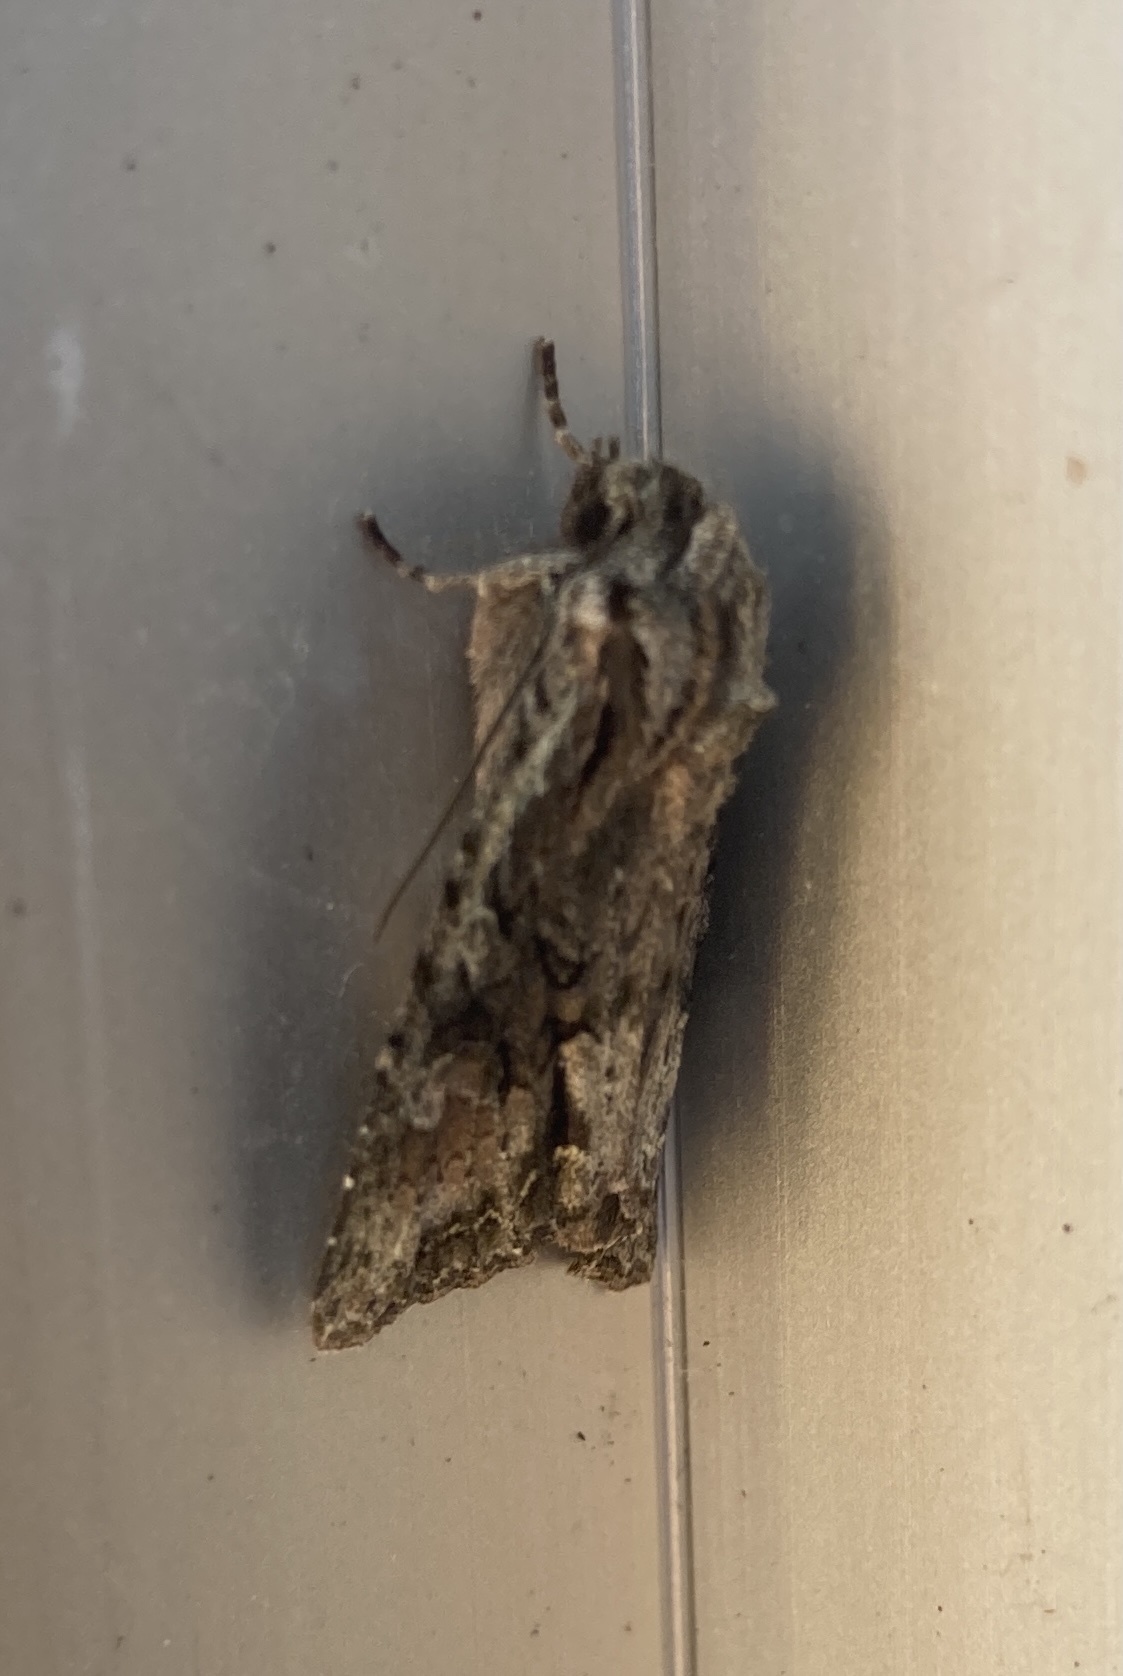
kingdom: Animalia
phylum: Arthropoda
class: Insecta
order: Lepidoptera
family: Noctuidae
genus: Ichneutica
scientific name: Ichneutica mutans
